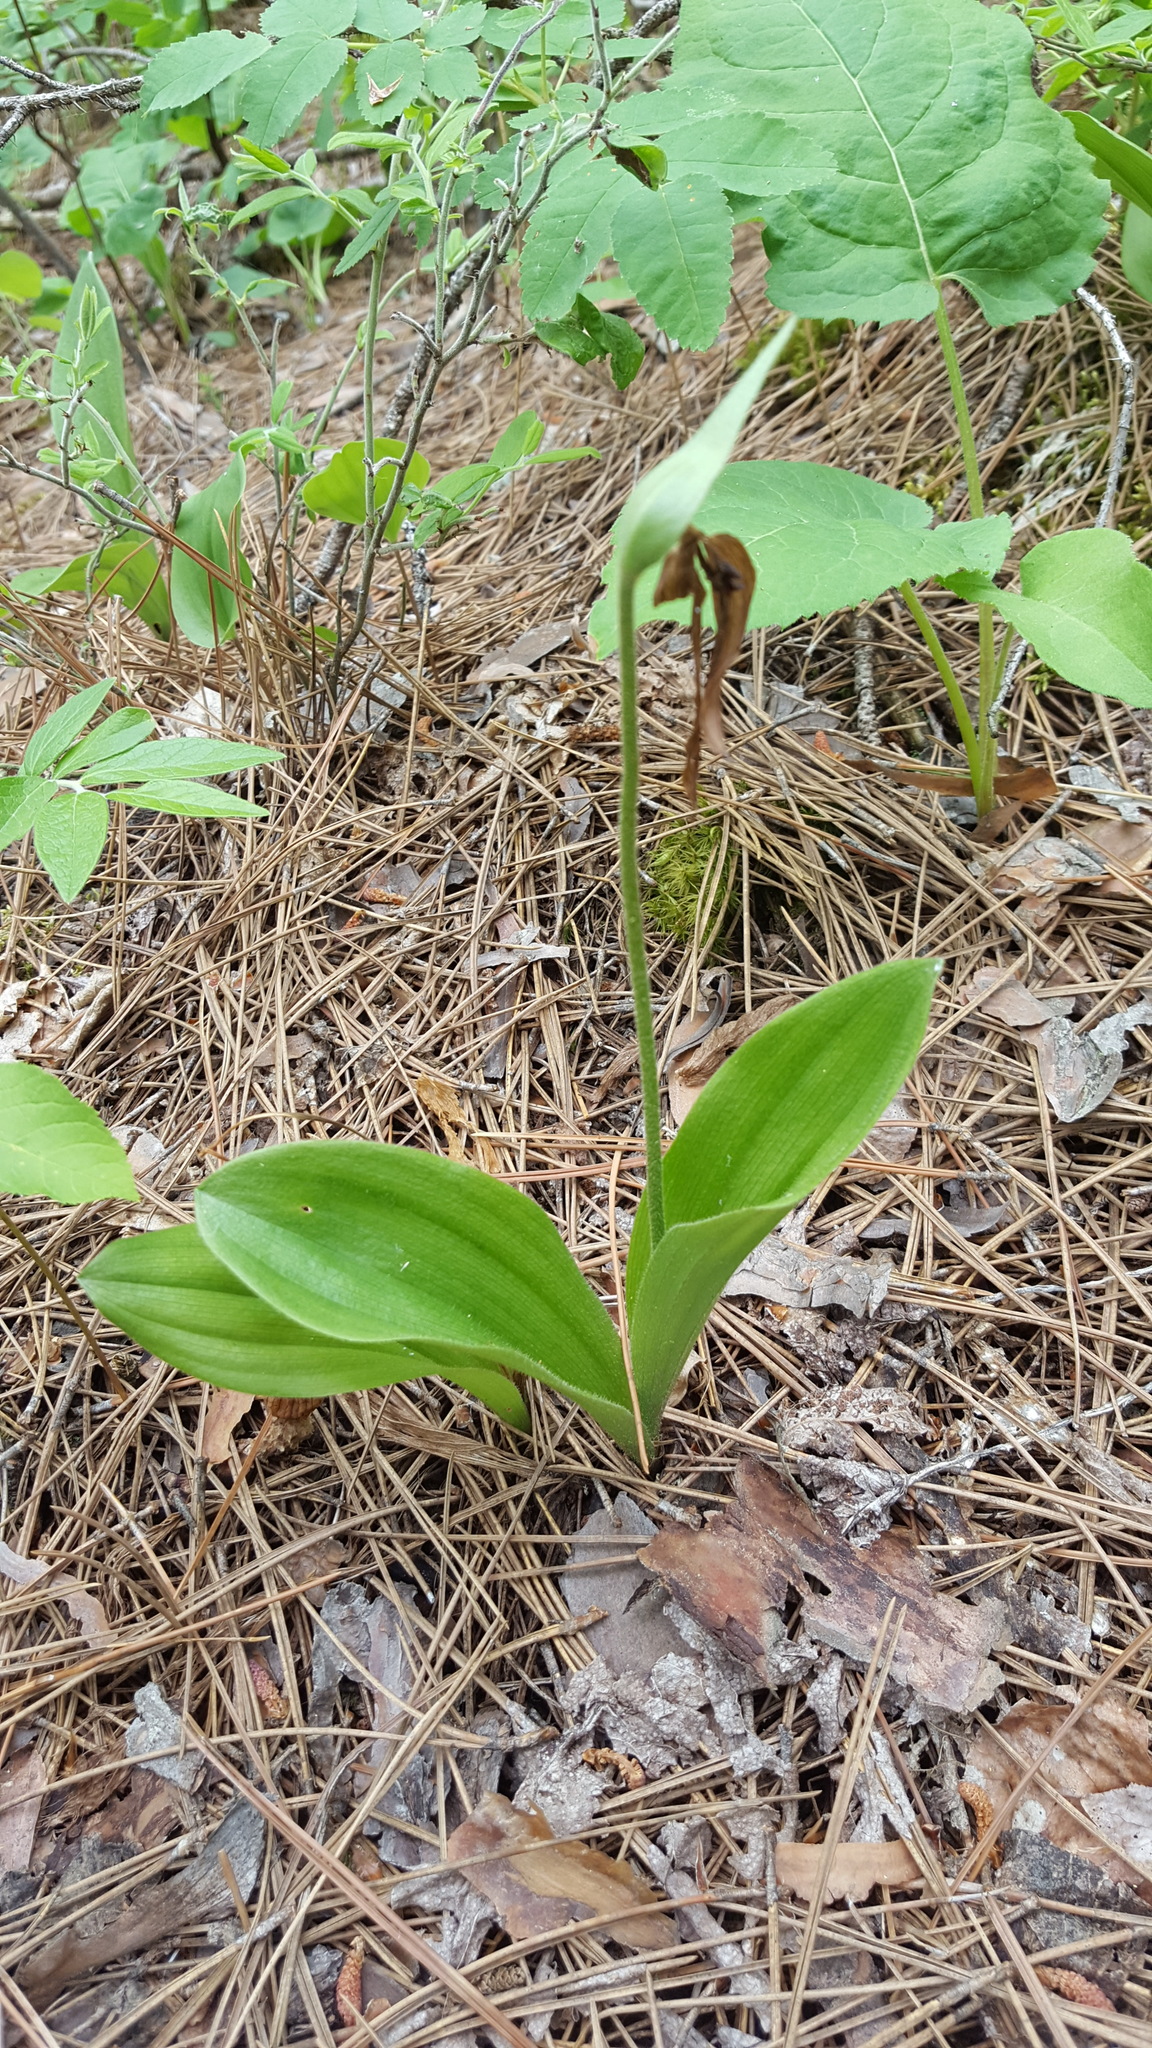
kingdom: Plantae
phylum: Tracheophyta
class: Liliopsida
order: Asparagales
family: Orchidaceae
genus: Cypripedium
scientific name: Cypripedium acaule
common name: Pink lady's-slipper
